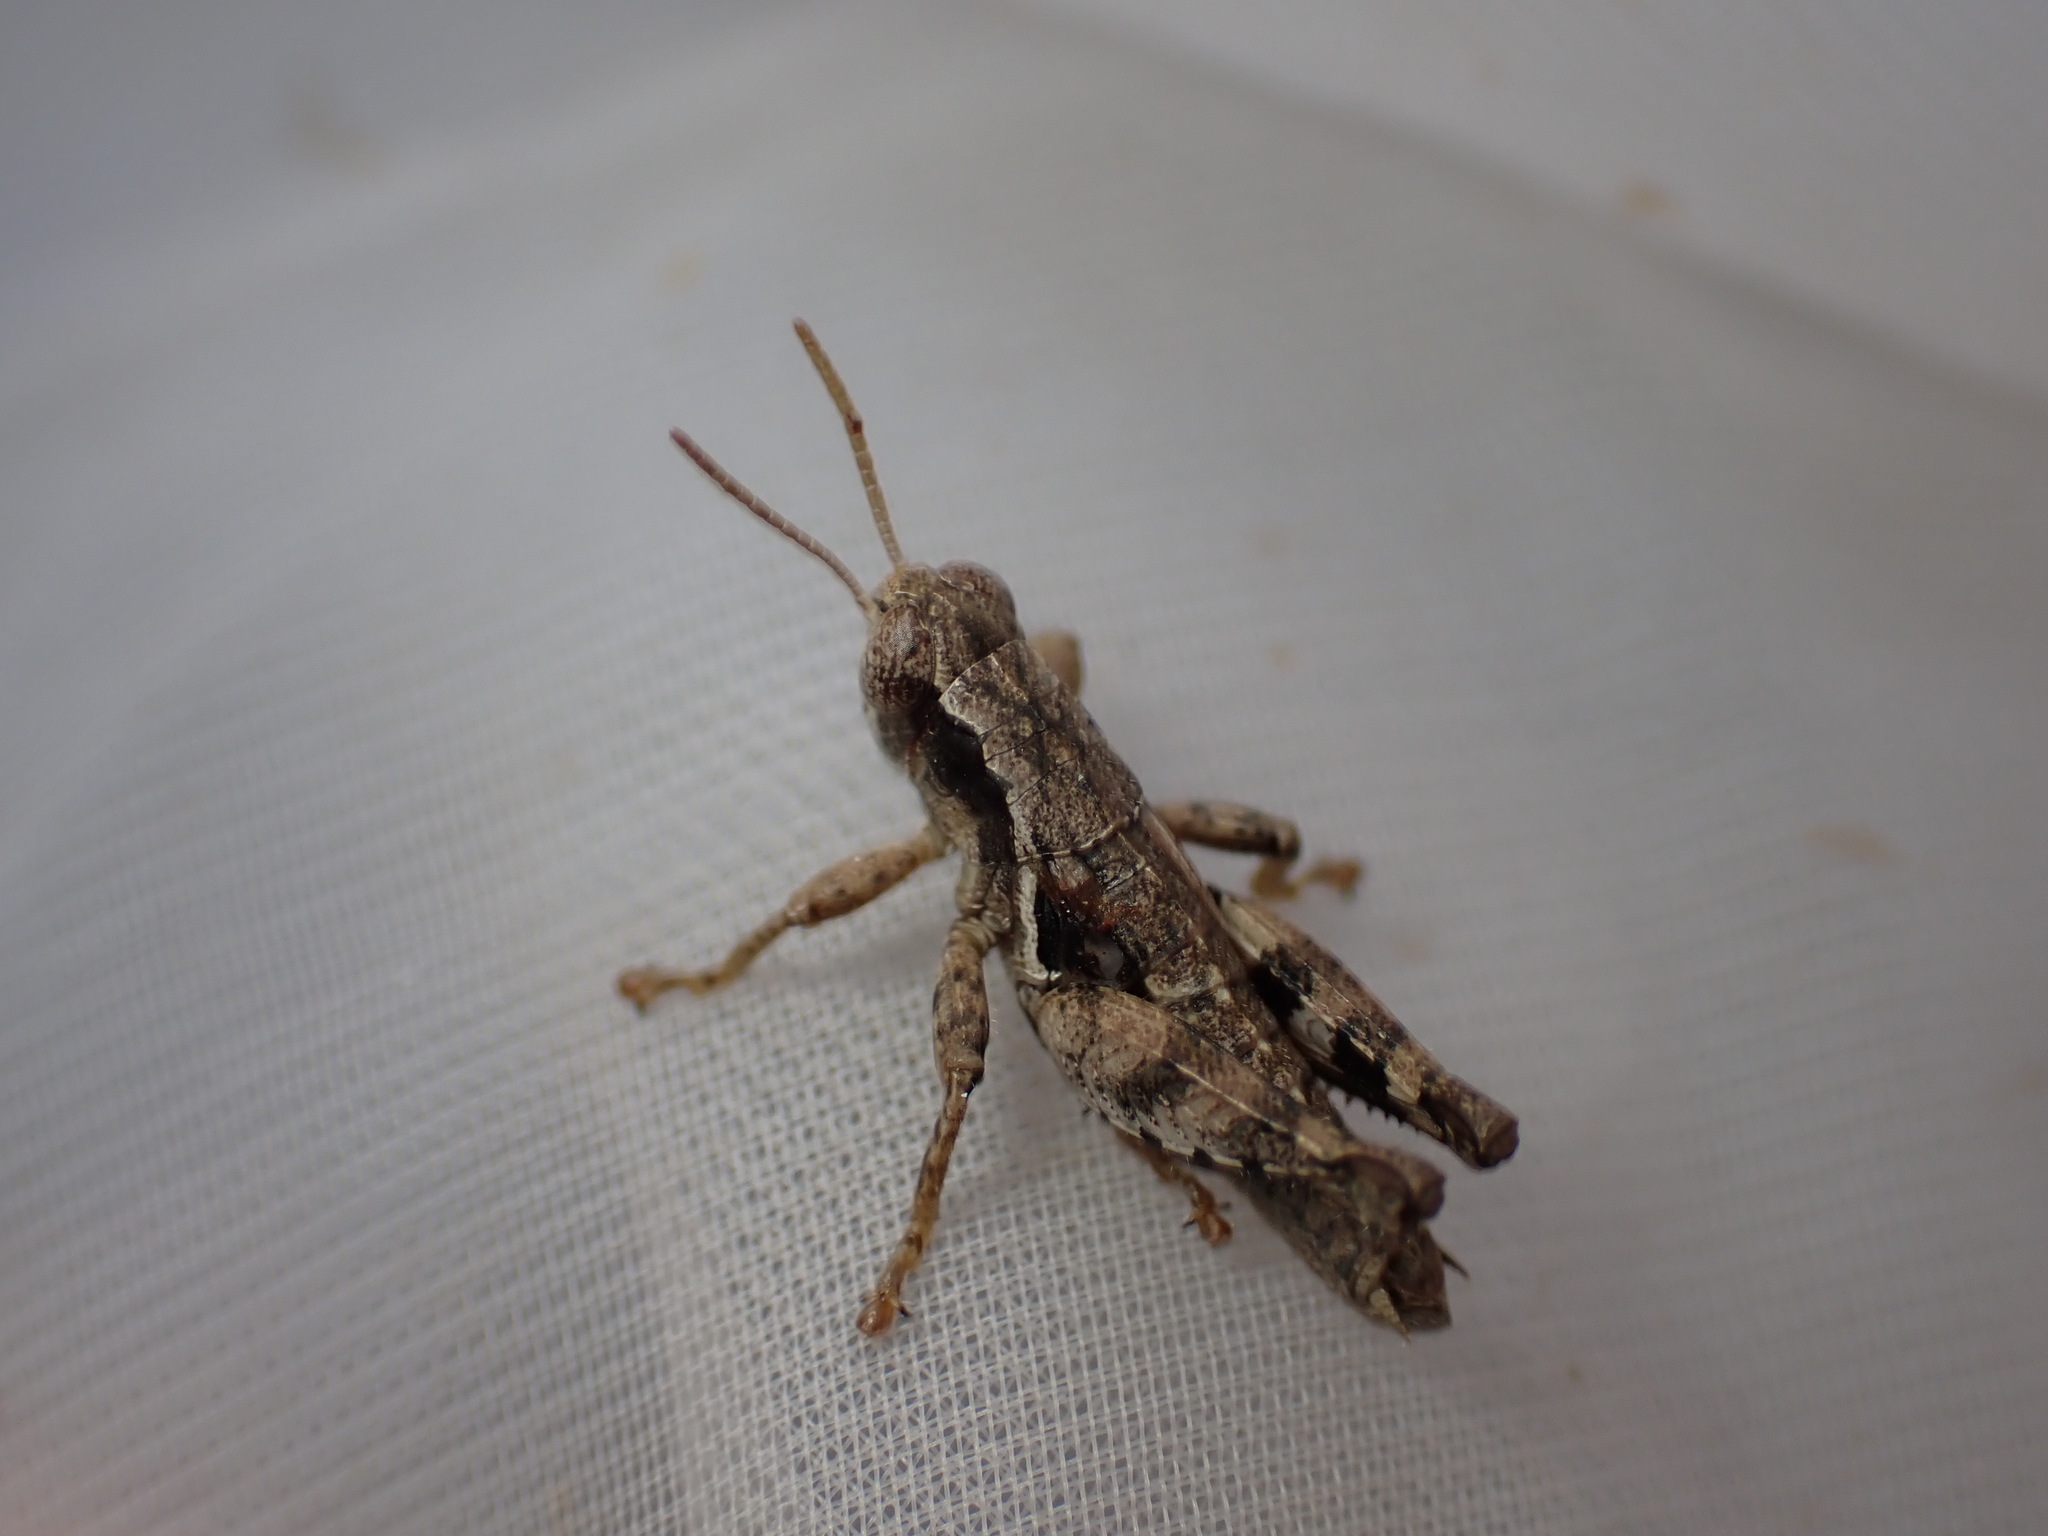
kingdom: Animalia
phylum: Arthropoda
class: Insecta
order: Orthoptera
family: Acrididae
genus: Pezotettix
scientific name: Pezotettix giornae
